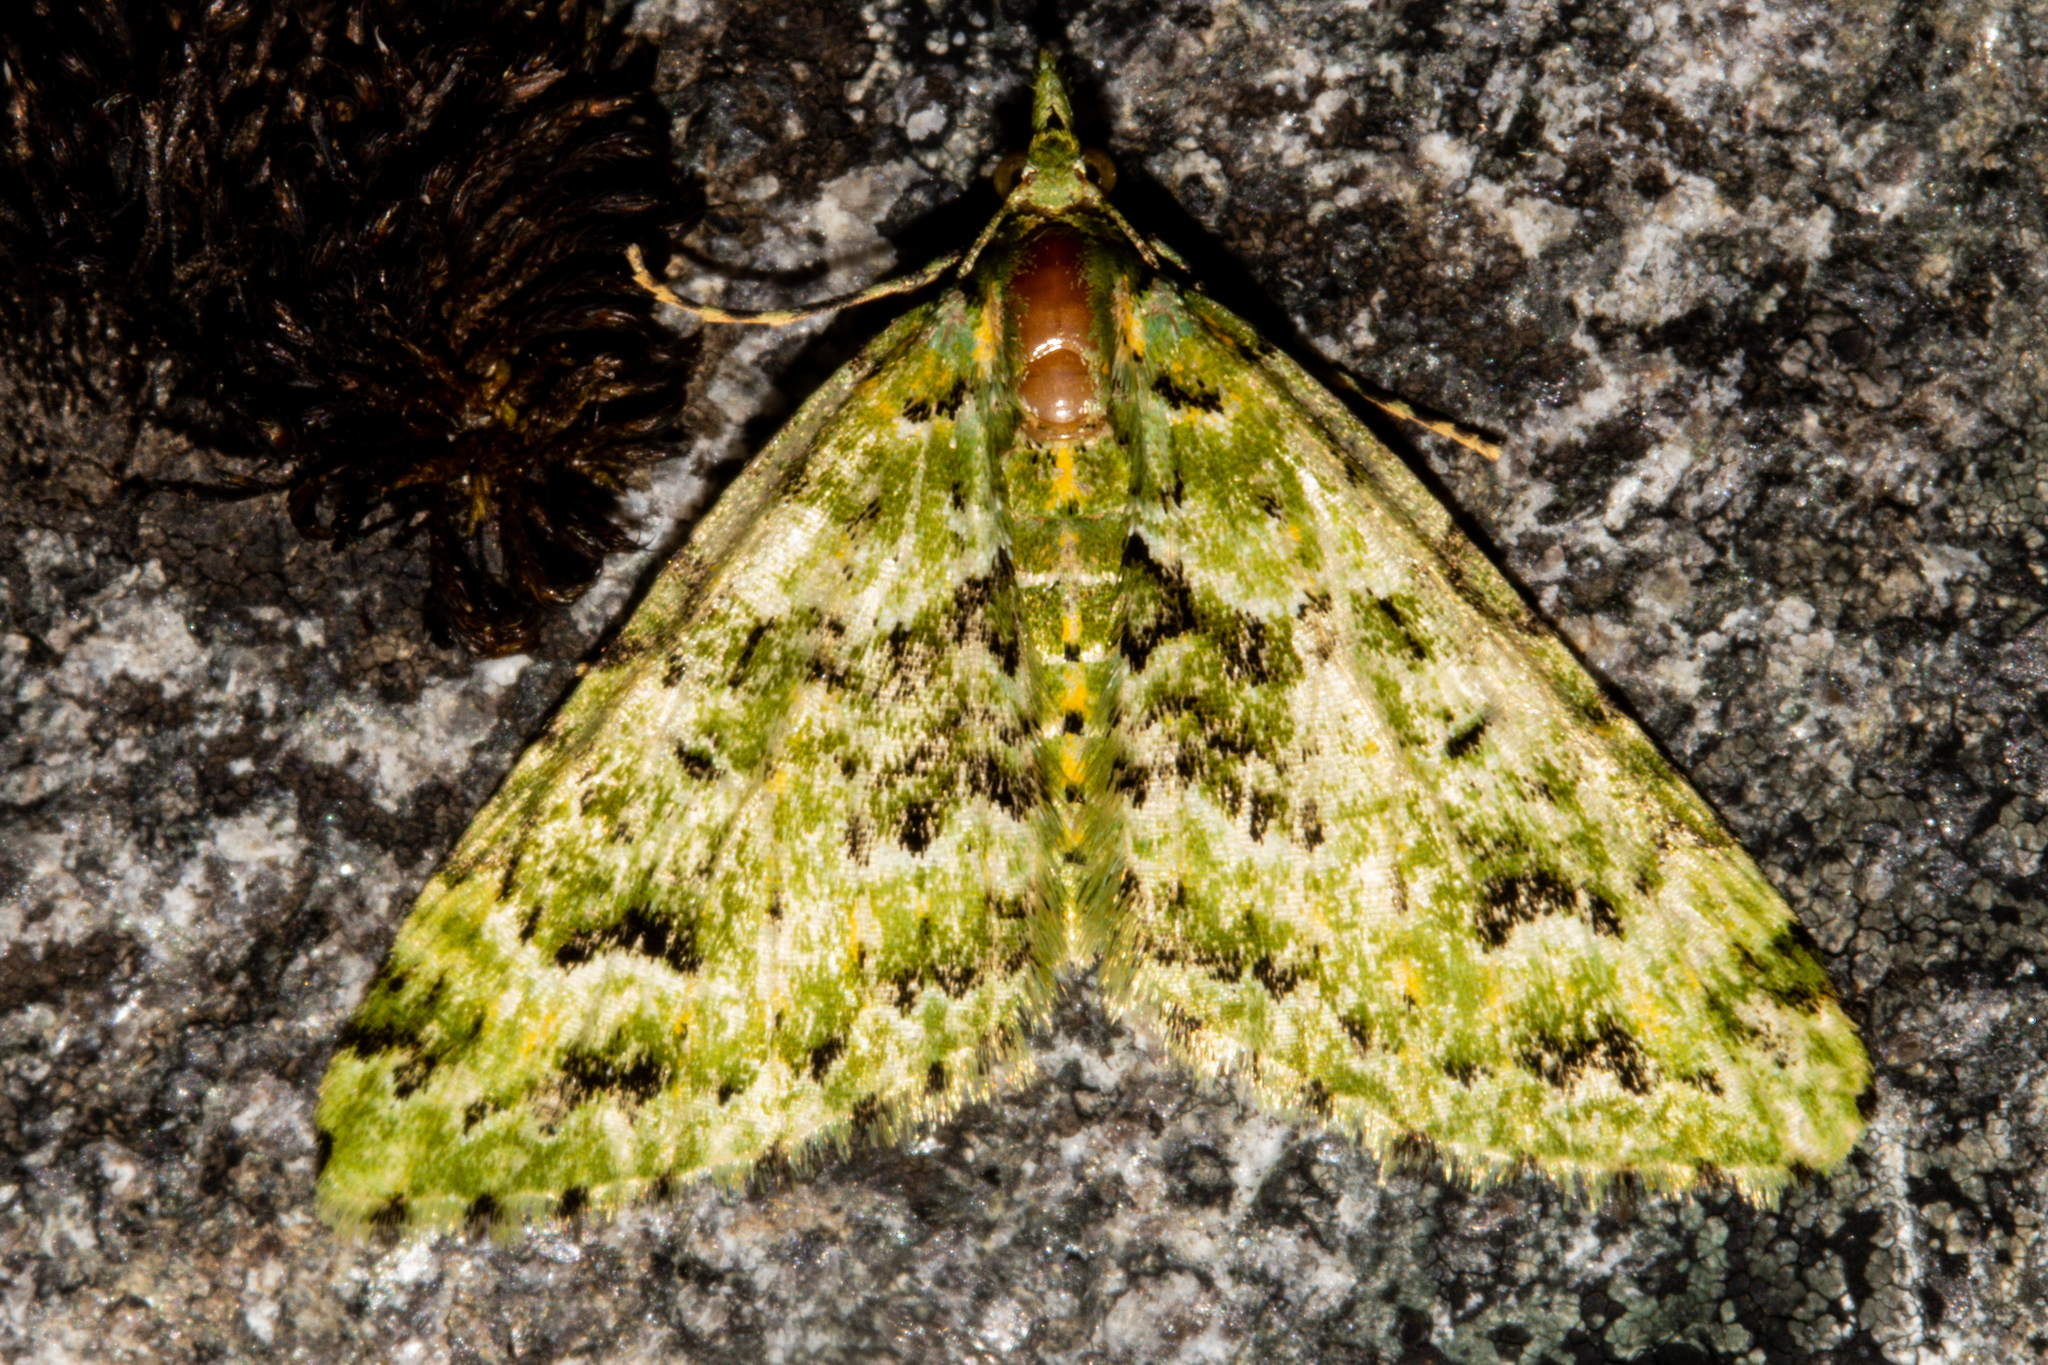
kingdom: Animalia
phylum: Arthropoda
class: Insecta
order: Lepidoptera
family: Geometridae
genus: Pasiphila
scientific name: Pasiphila melochlora
